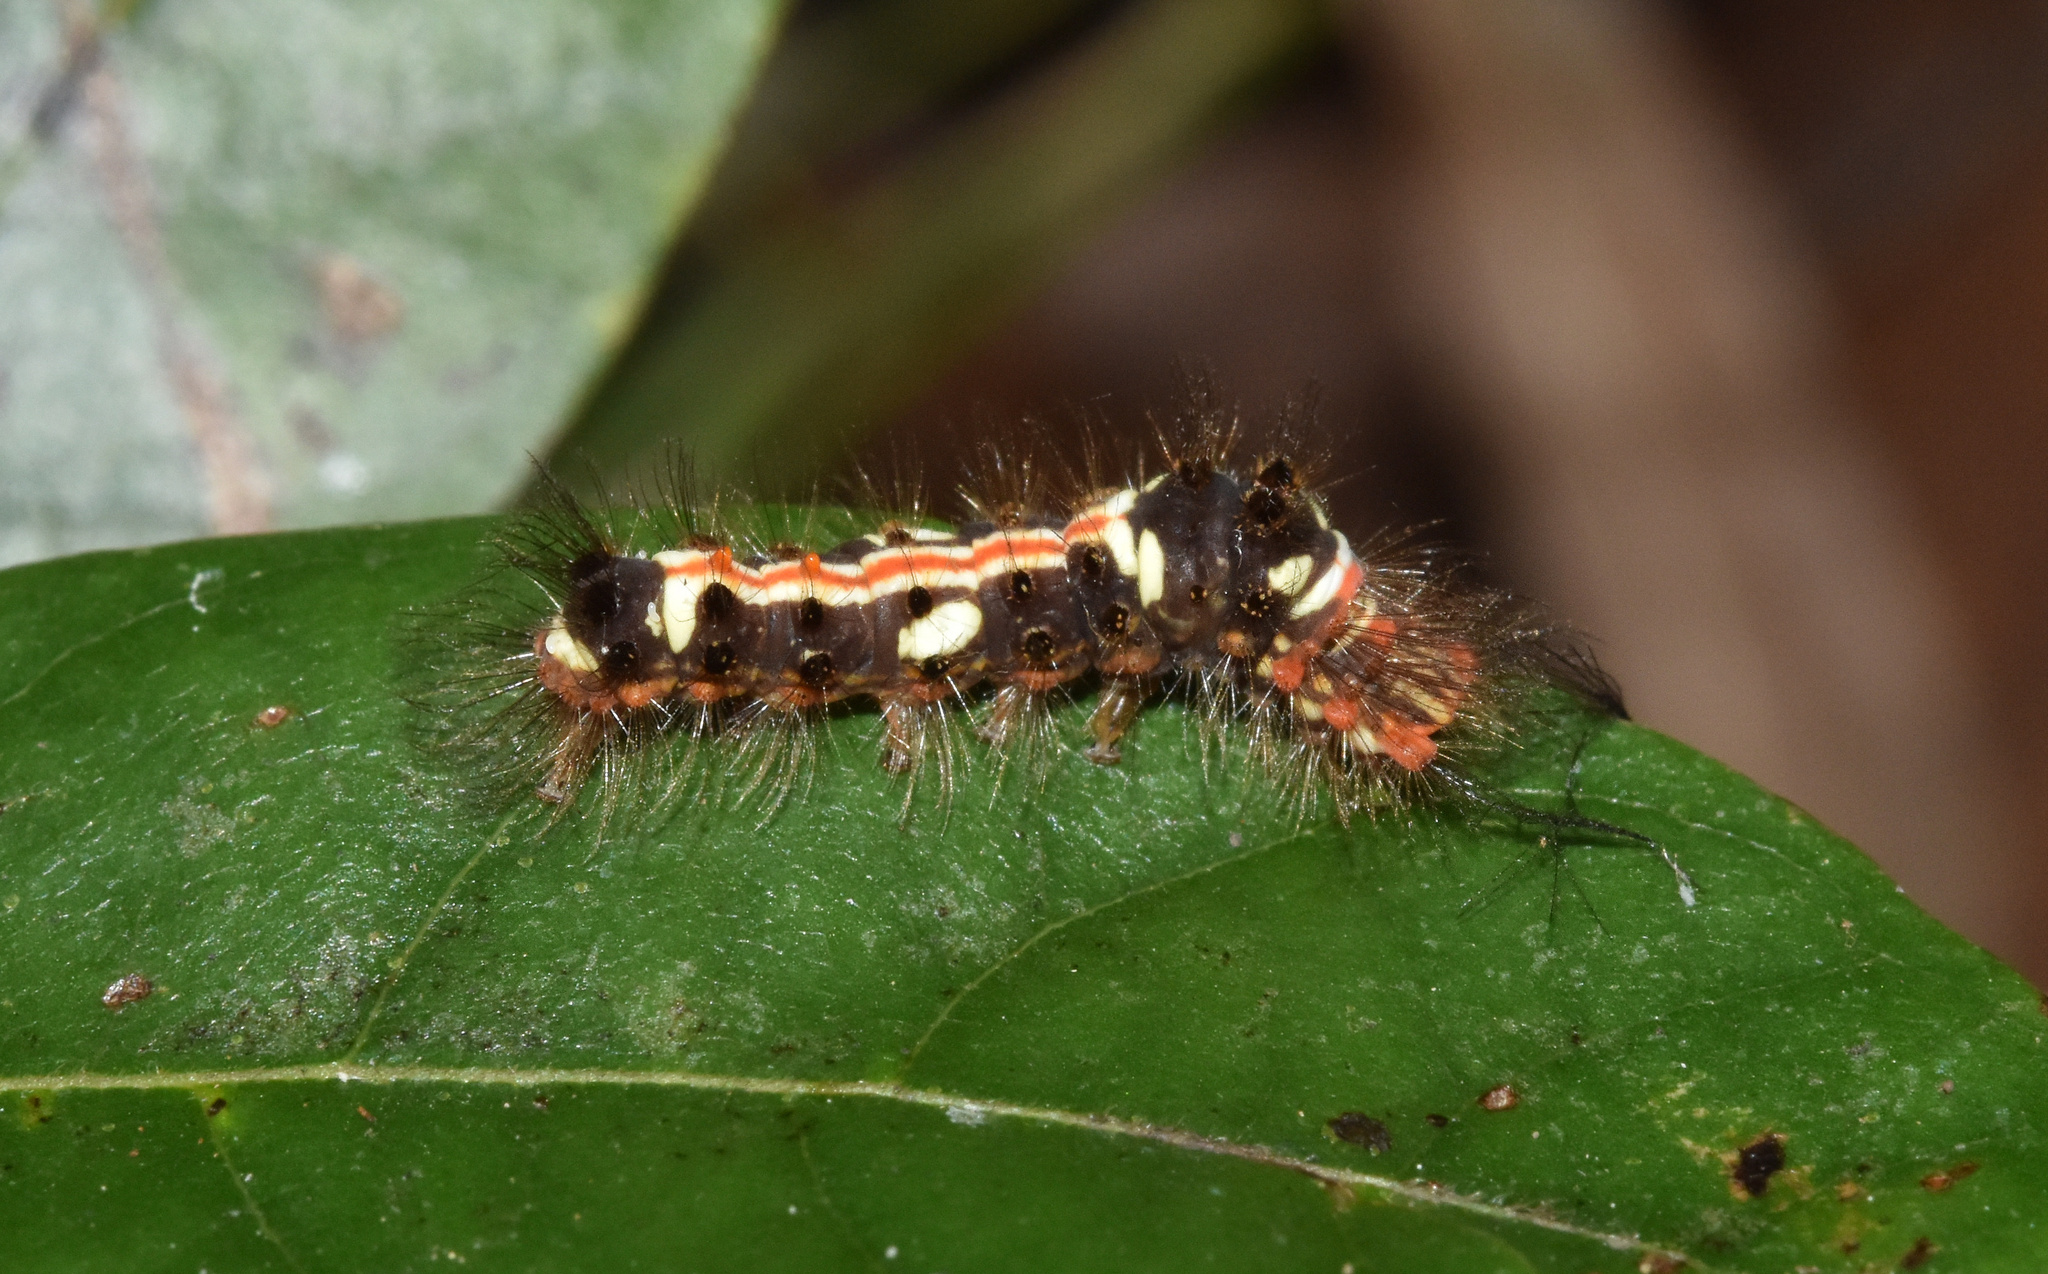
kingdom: Animalia
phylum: Arthropoda
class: Insecta
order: Lepidoptera
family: Erebidae
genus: Euproctis
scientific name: Euproctis aethiopica
